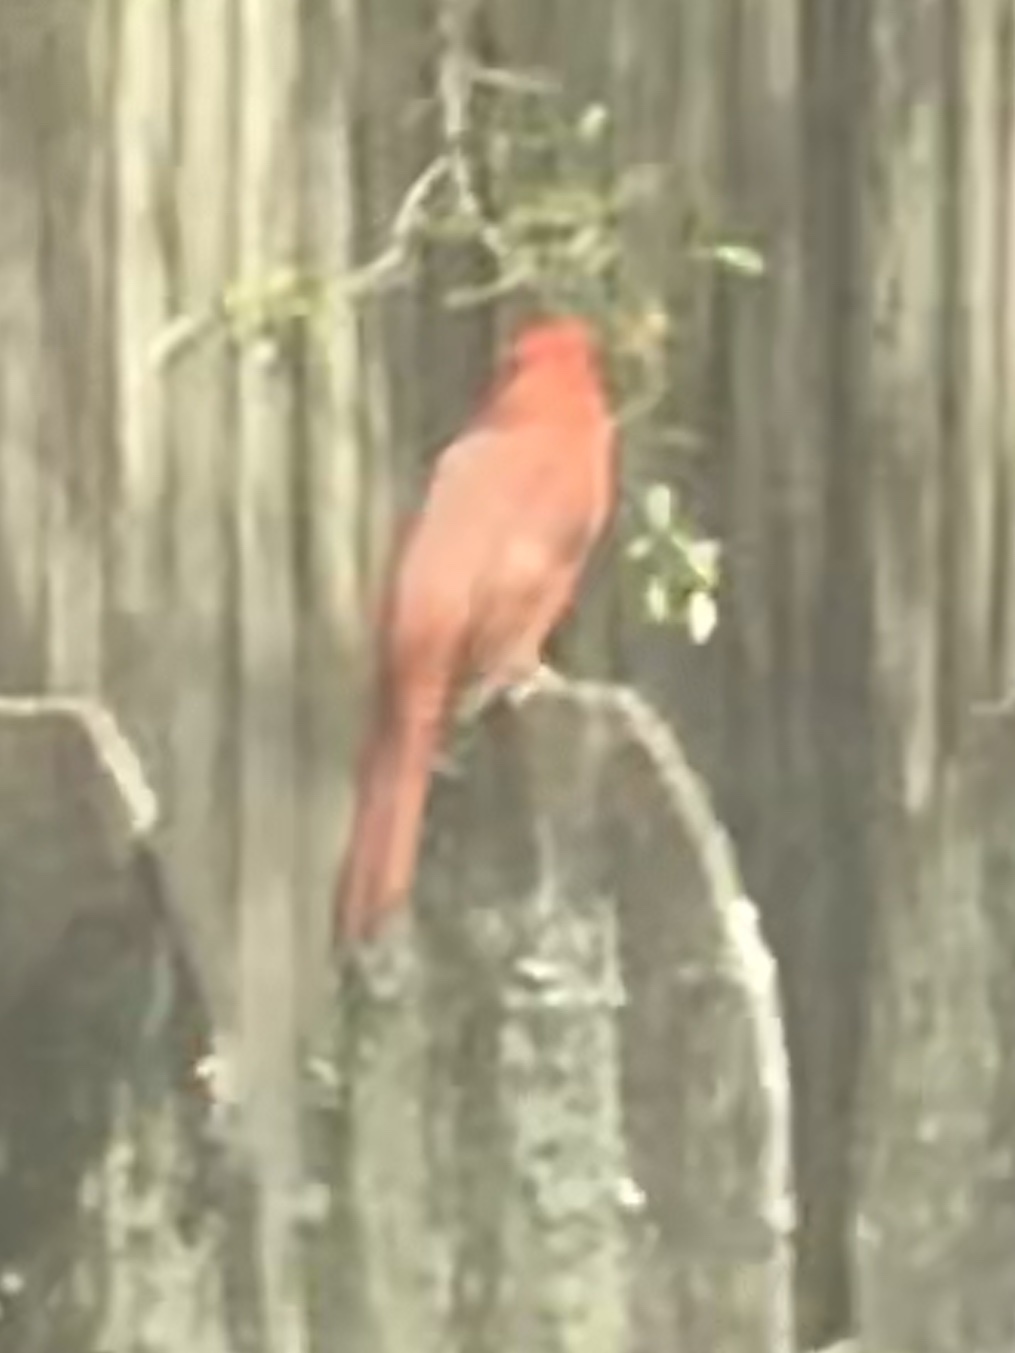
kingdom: Animalia
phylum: Chordata
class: Aves
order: Passeriformes
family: Cardinalidae
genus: Cardinalis
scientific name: Cardinalis cardinalis
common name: Northern cardinal
